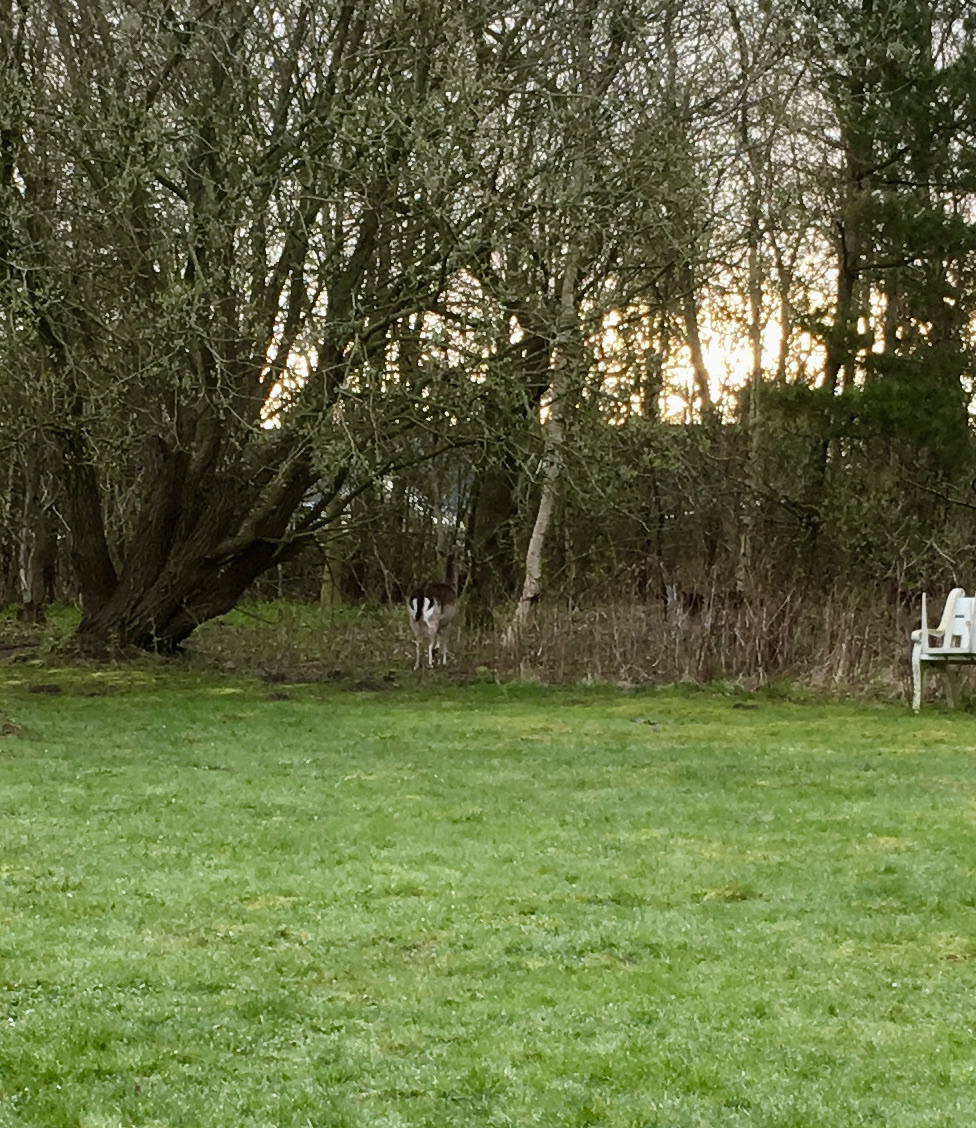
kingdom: Animalia
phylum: Chordata
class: Mammalia
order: Artiodactyla
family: Cervidae
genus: Dama
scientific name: Dama dama
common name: Fallow deer
